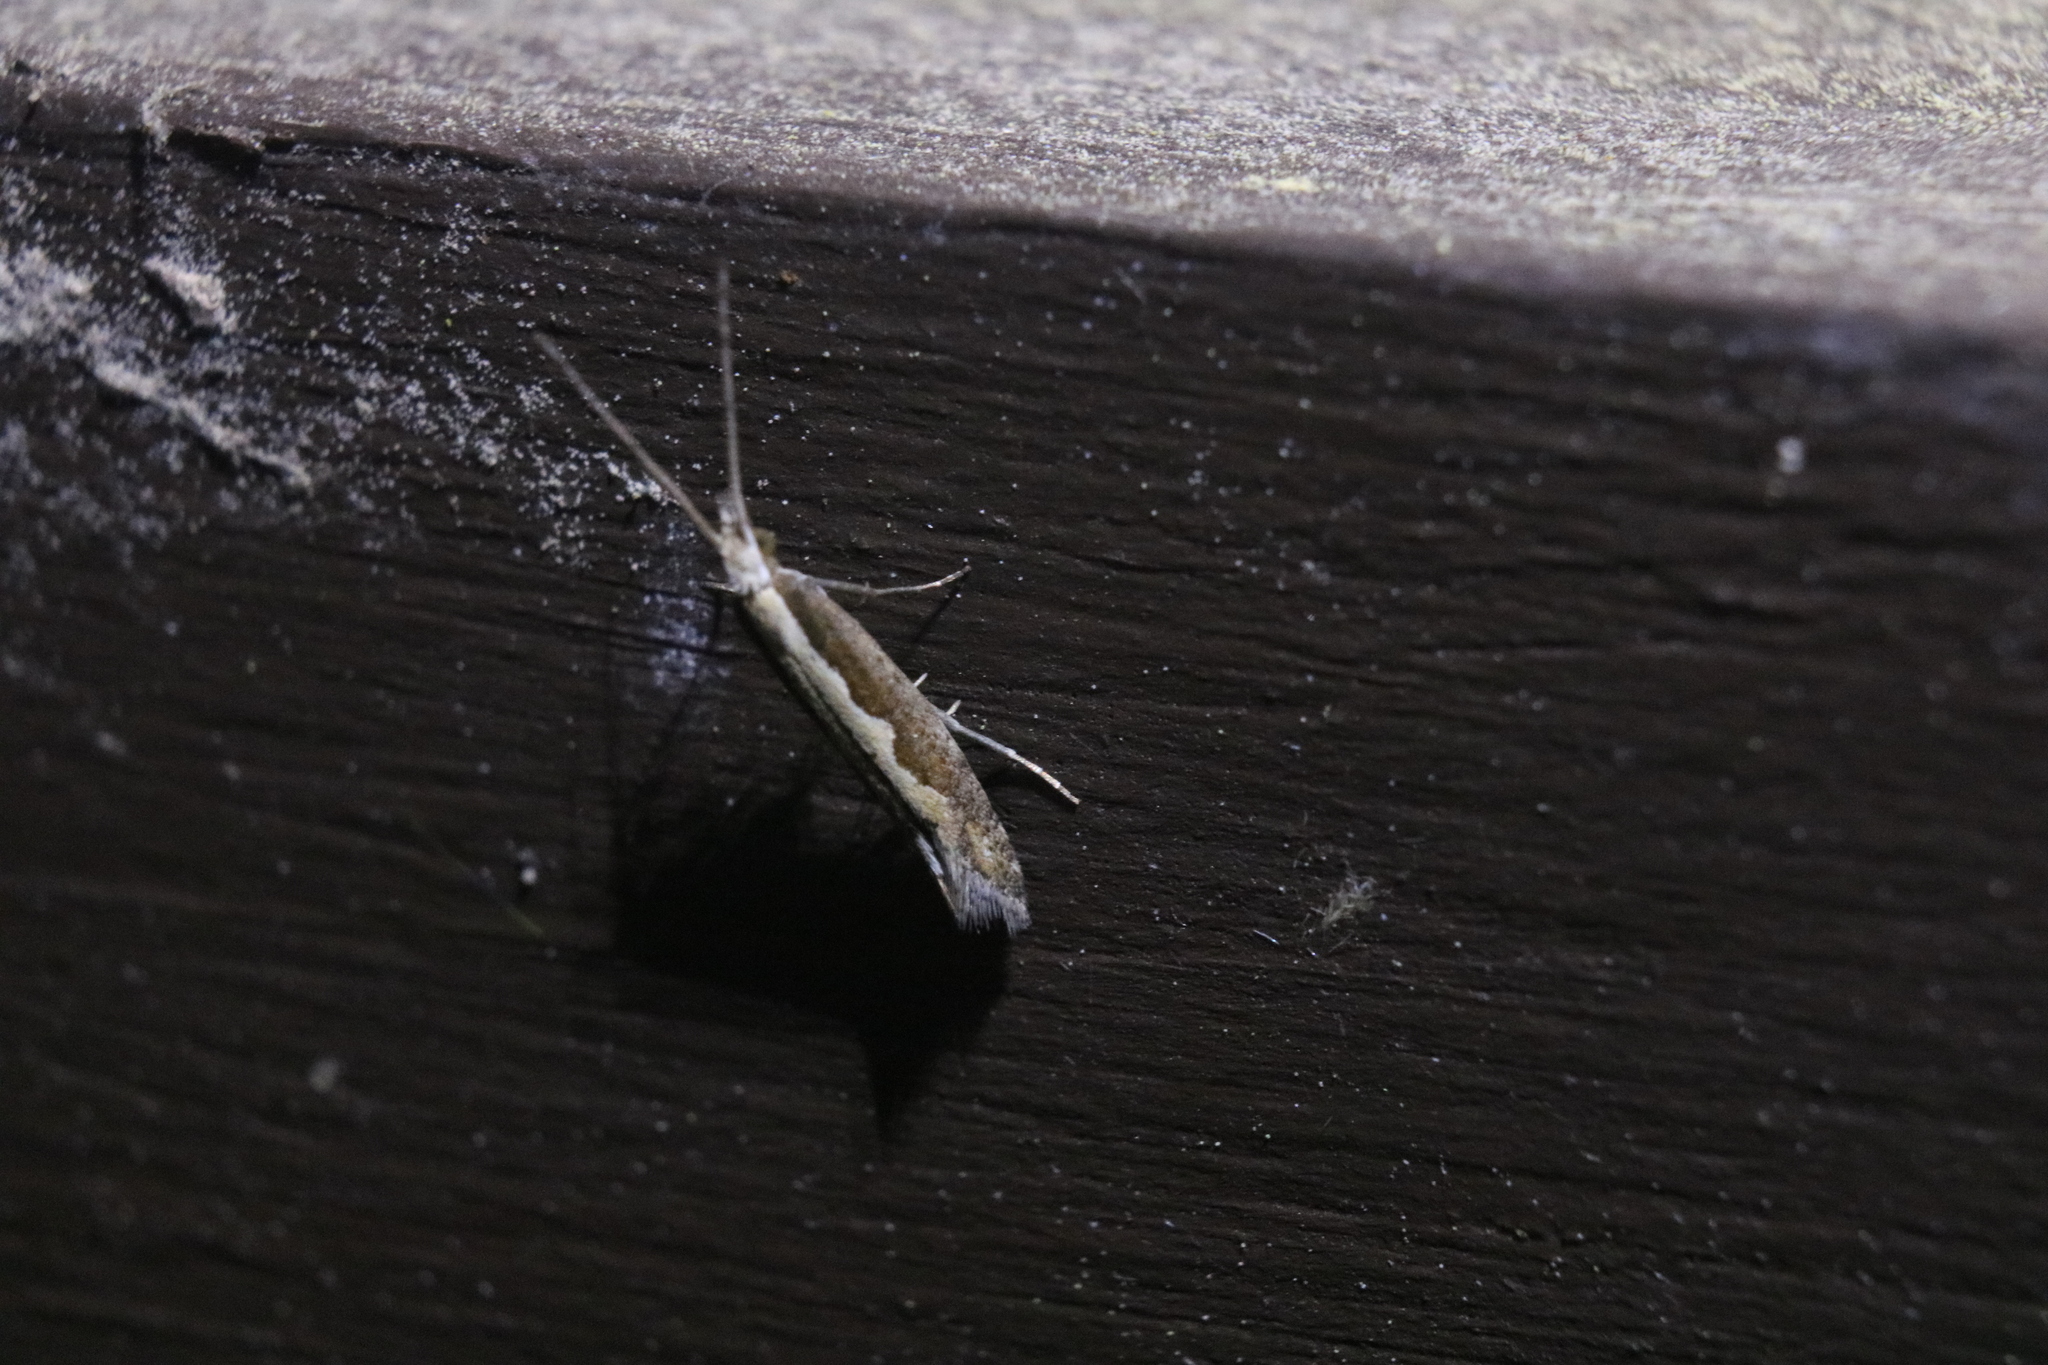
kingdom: Animalia
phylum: Arthropoda
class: Insecta
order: Lepidoptera
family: Plutellidae
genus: Plutella
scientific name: Plutella xylostella
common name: Diamond-back moth
